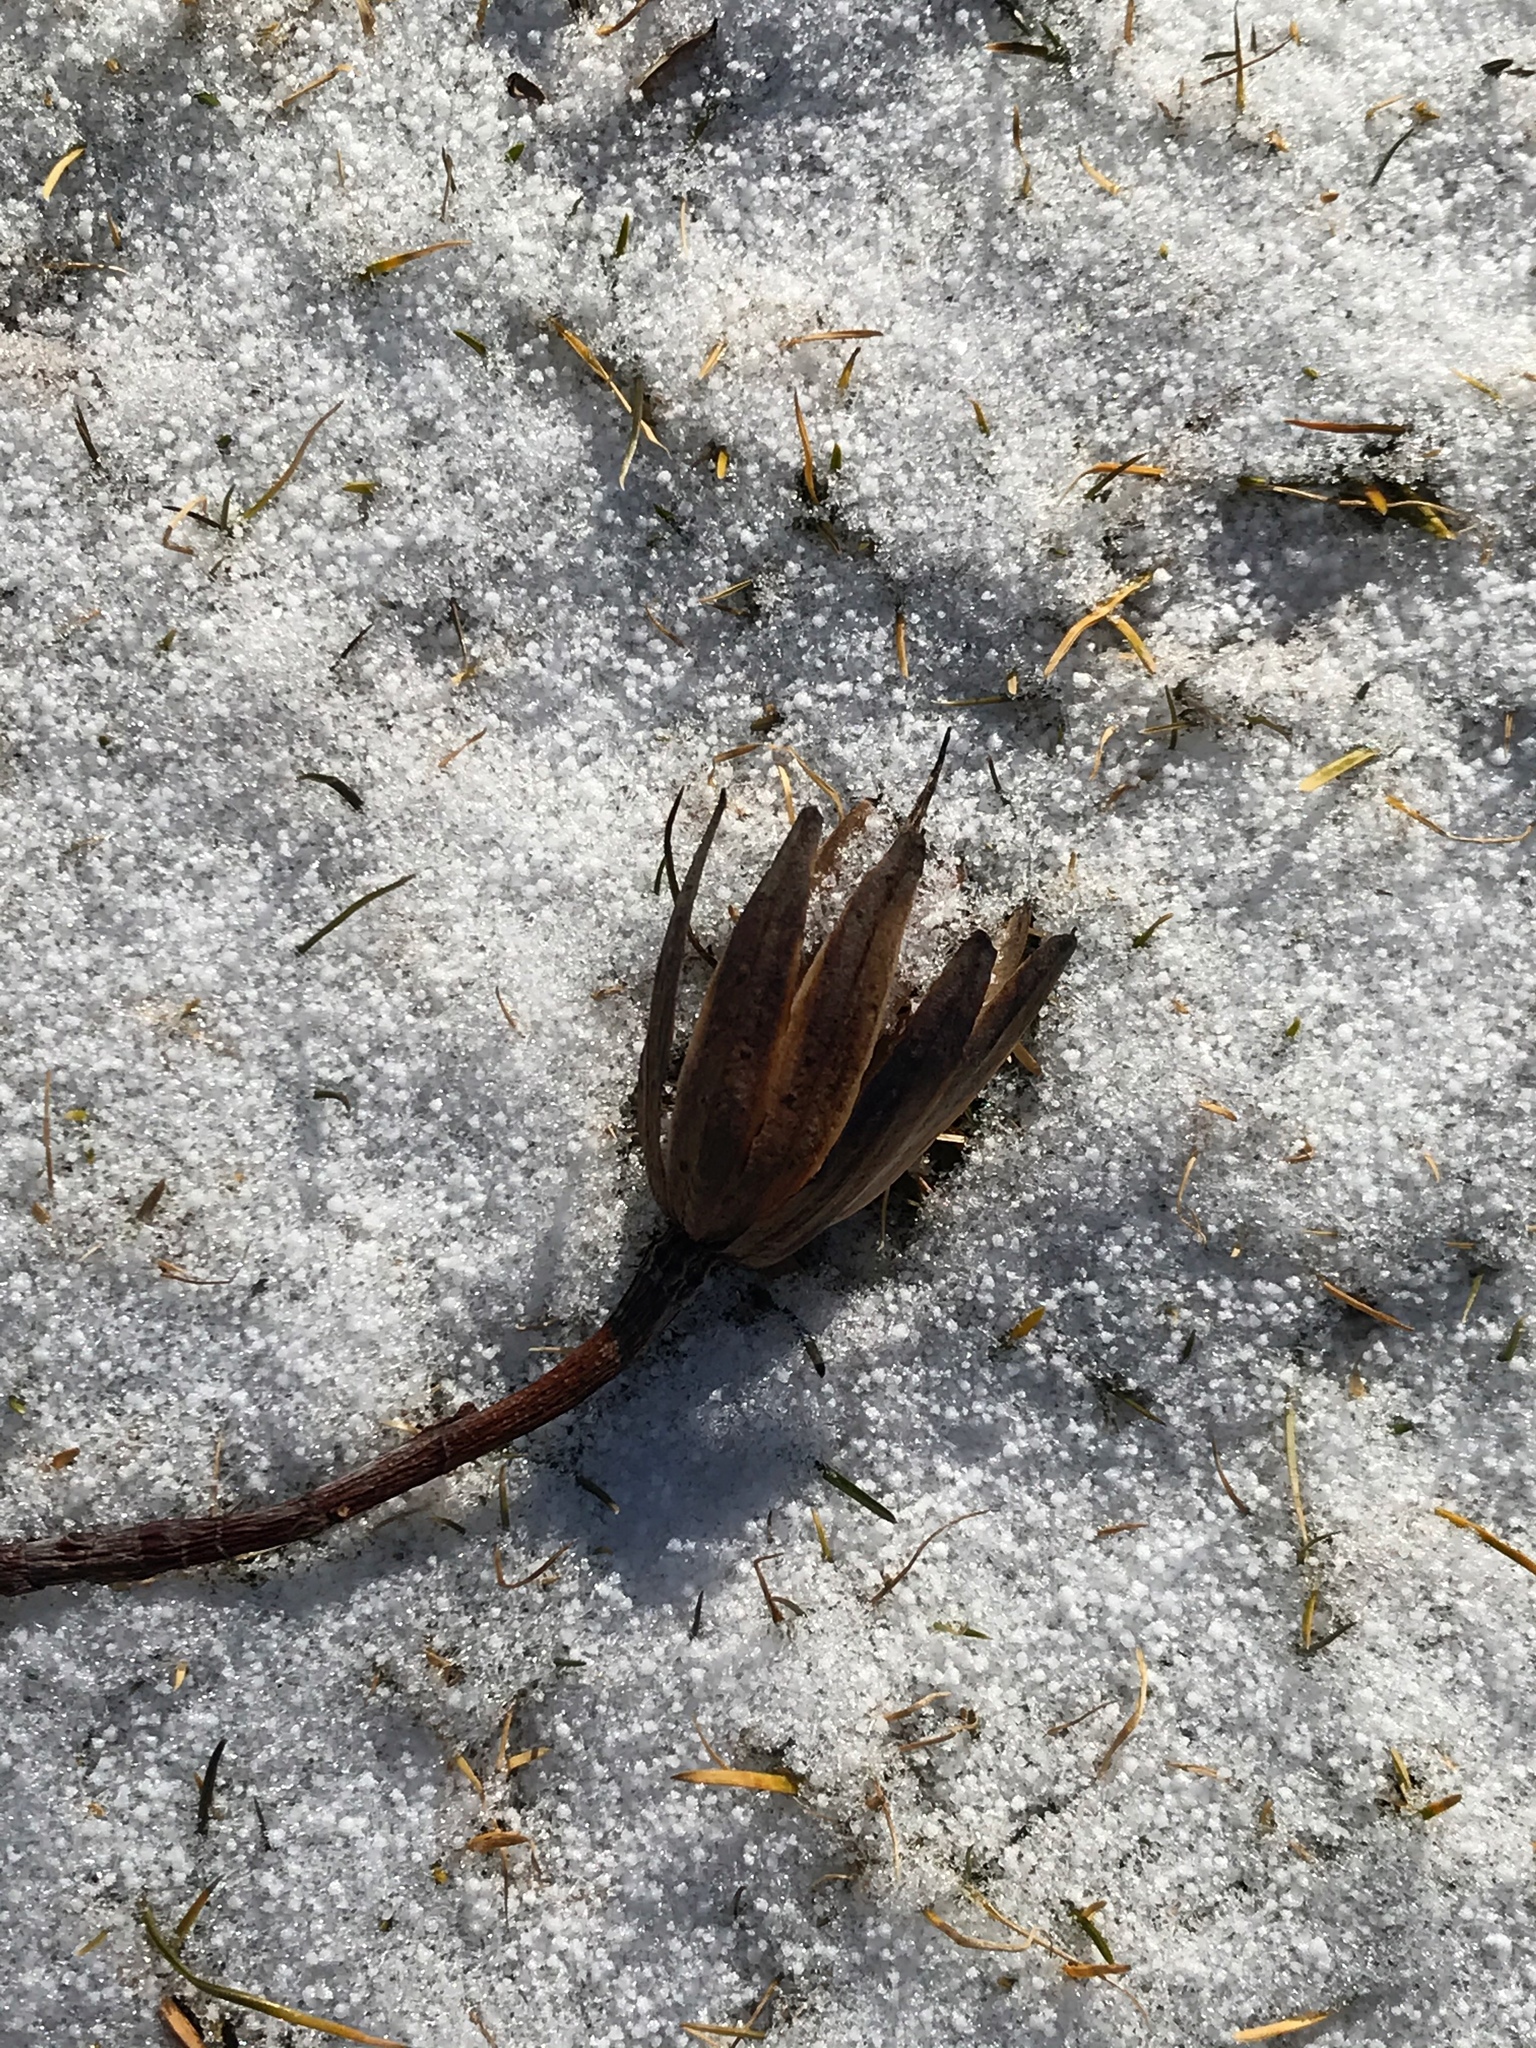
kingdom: Plantae
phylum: Tracheophyta
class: Magnoliopsida
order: Magnoliales
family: Magnoliaceae
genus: Liriodendron
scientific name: Liriodendron tulipifera
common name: Tulip tree
